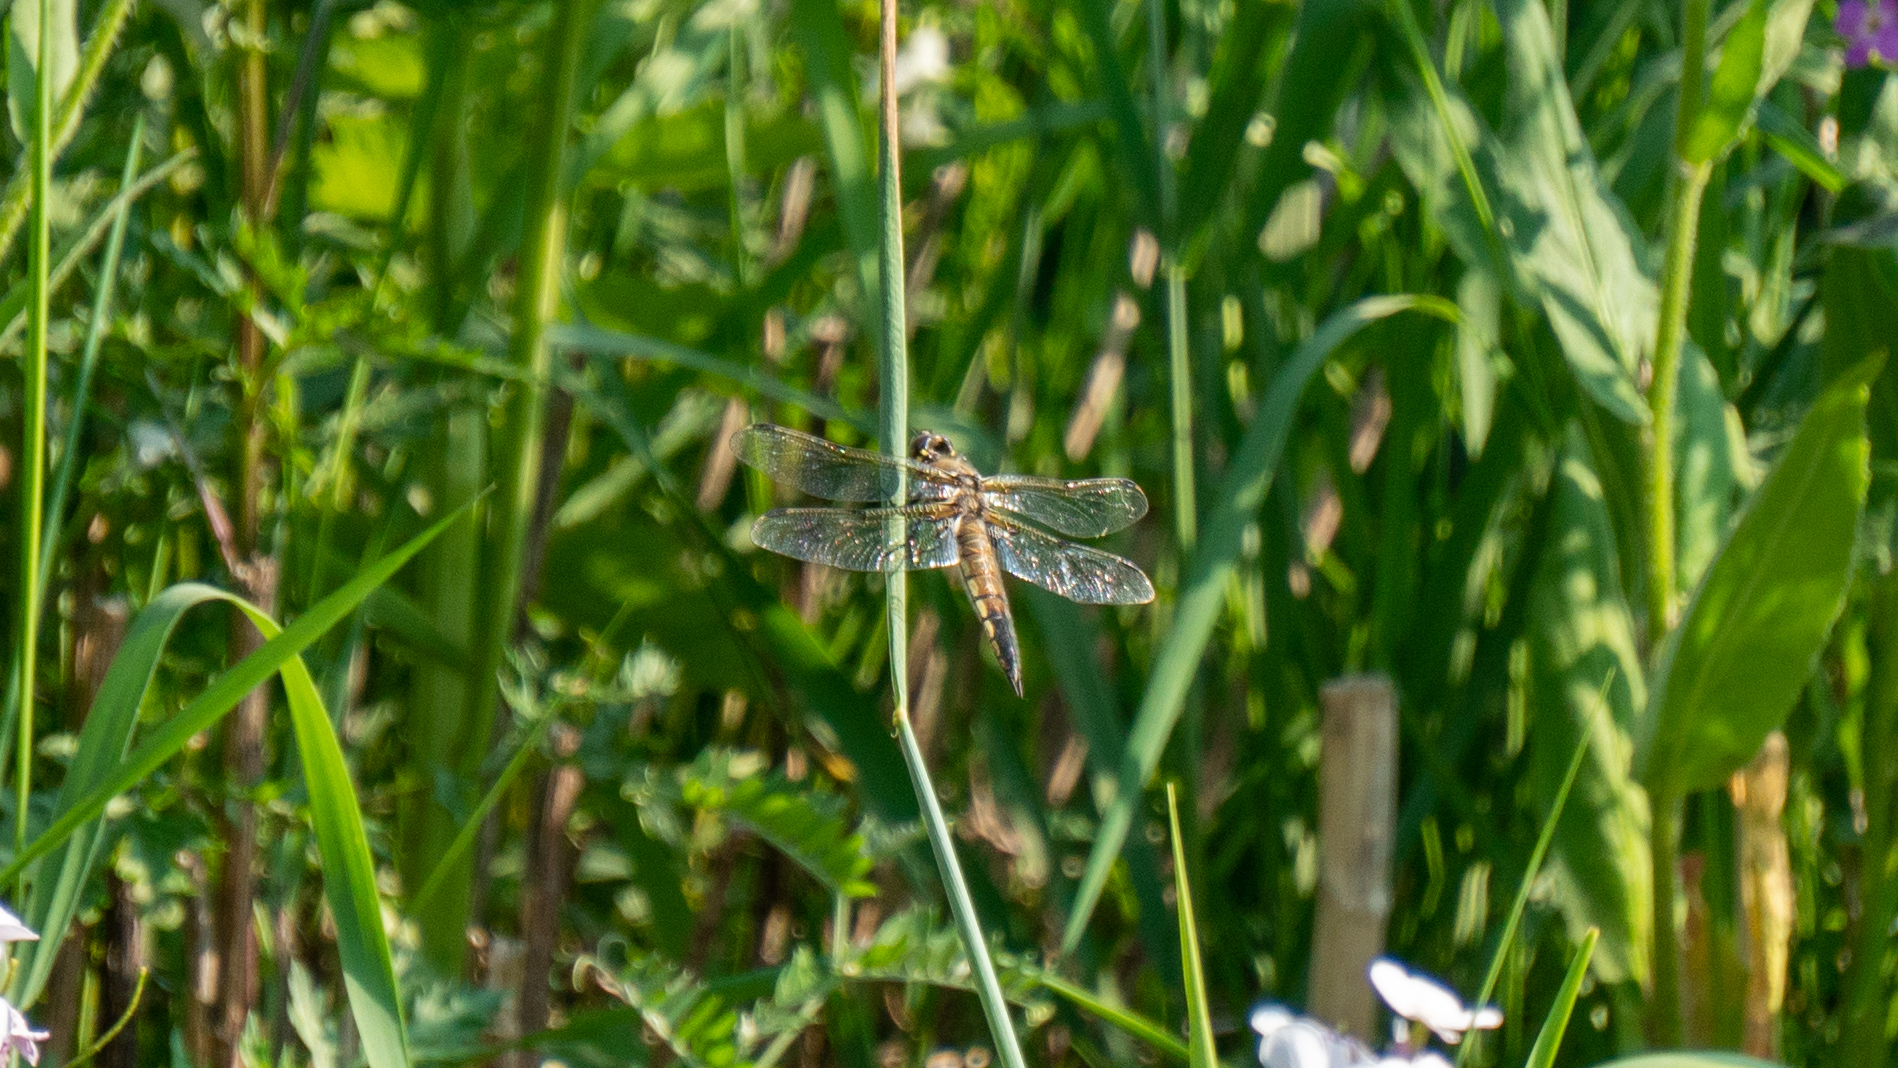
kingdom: Animalia
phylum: Arthropoda
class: Insecta
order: Odonata
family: Libellulidae
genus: Libellula
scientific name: Libellula quadrimaculata
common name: Four-spotted chaser
